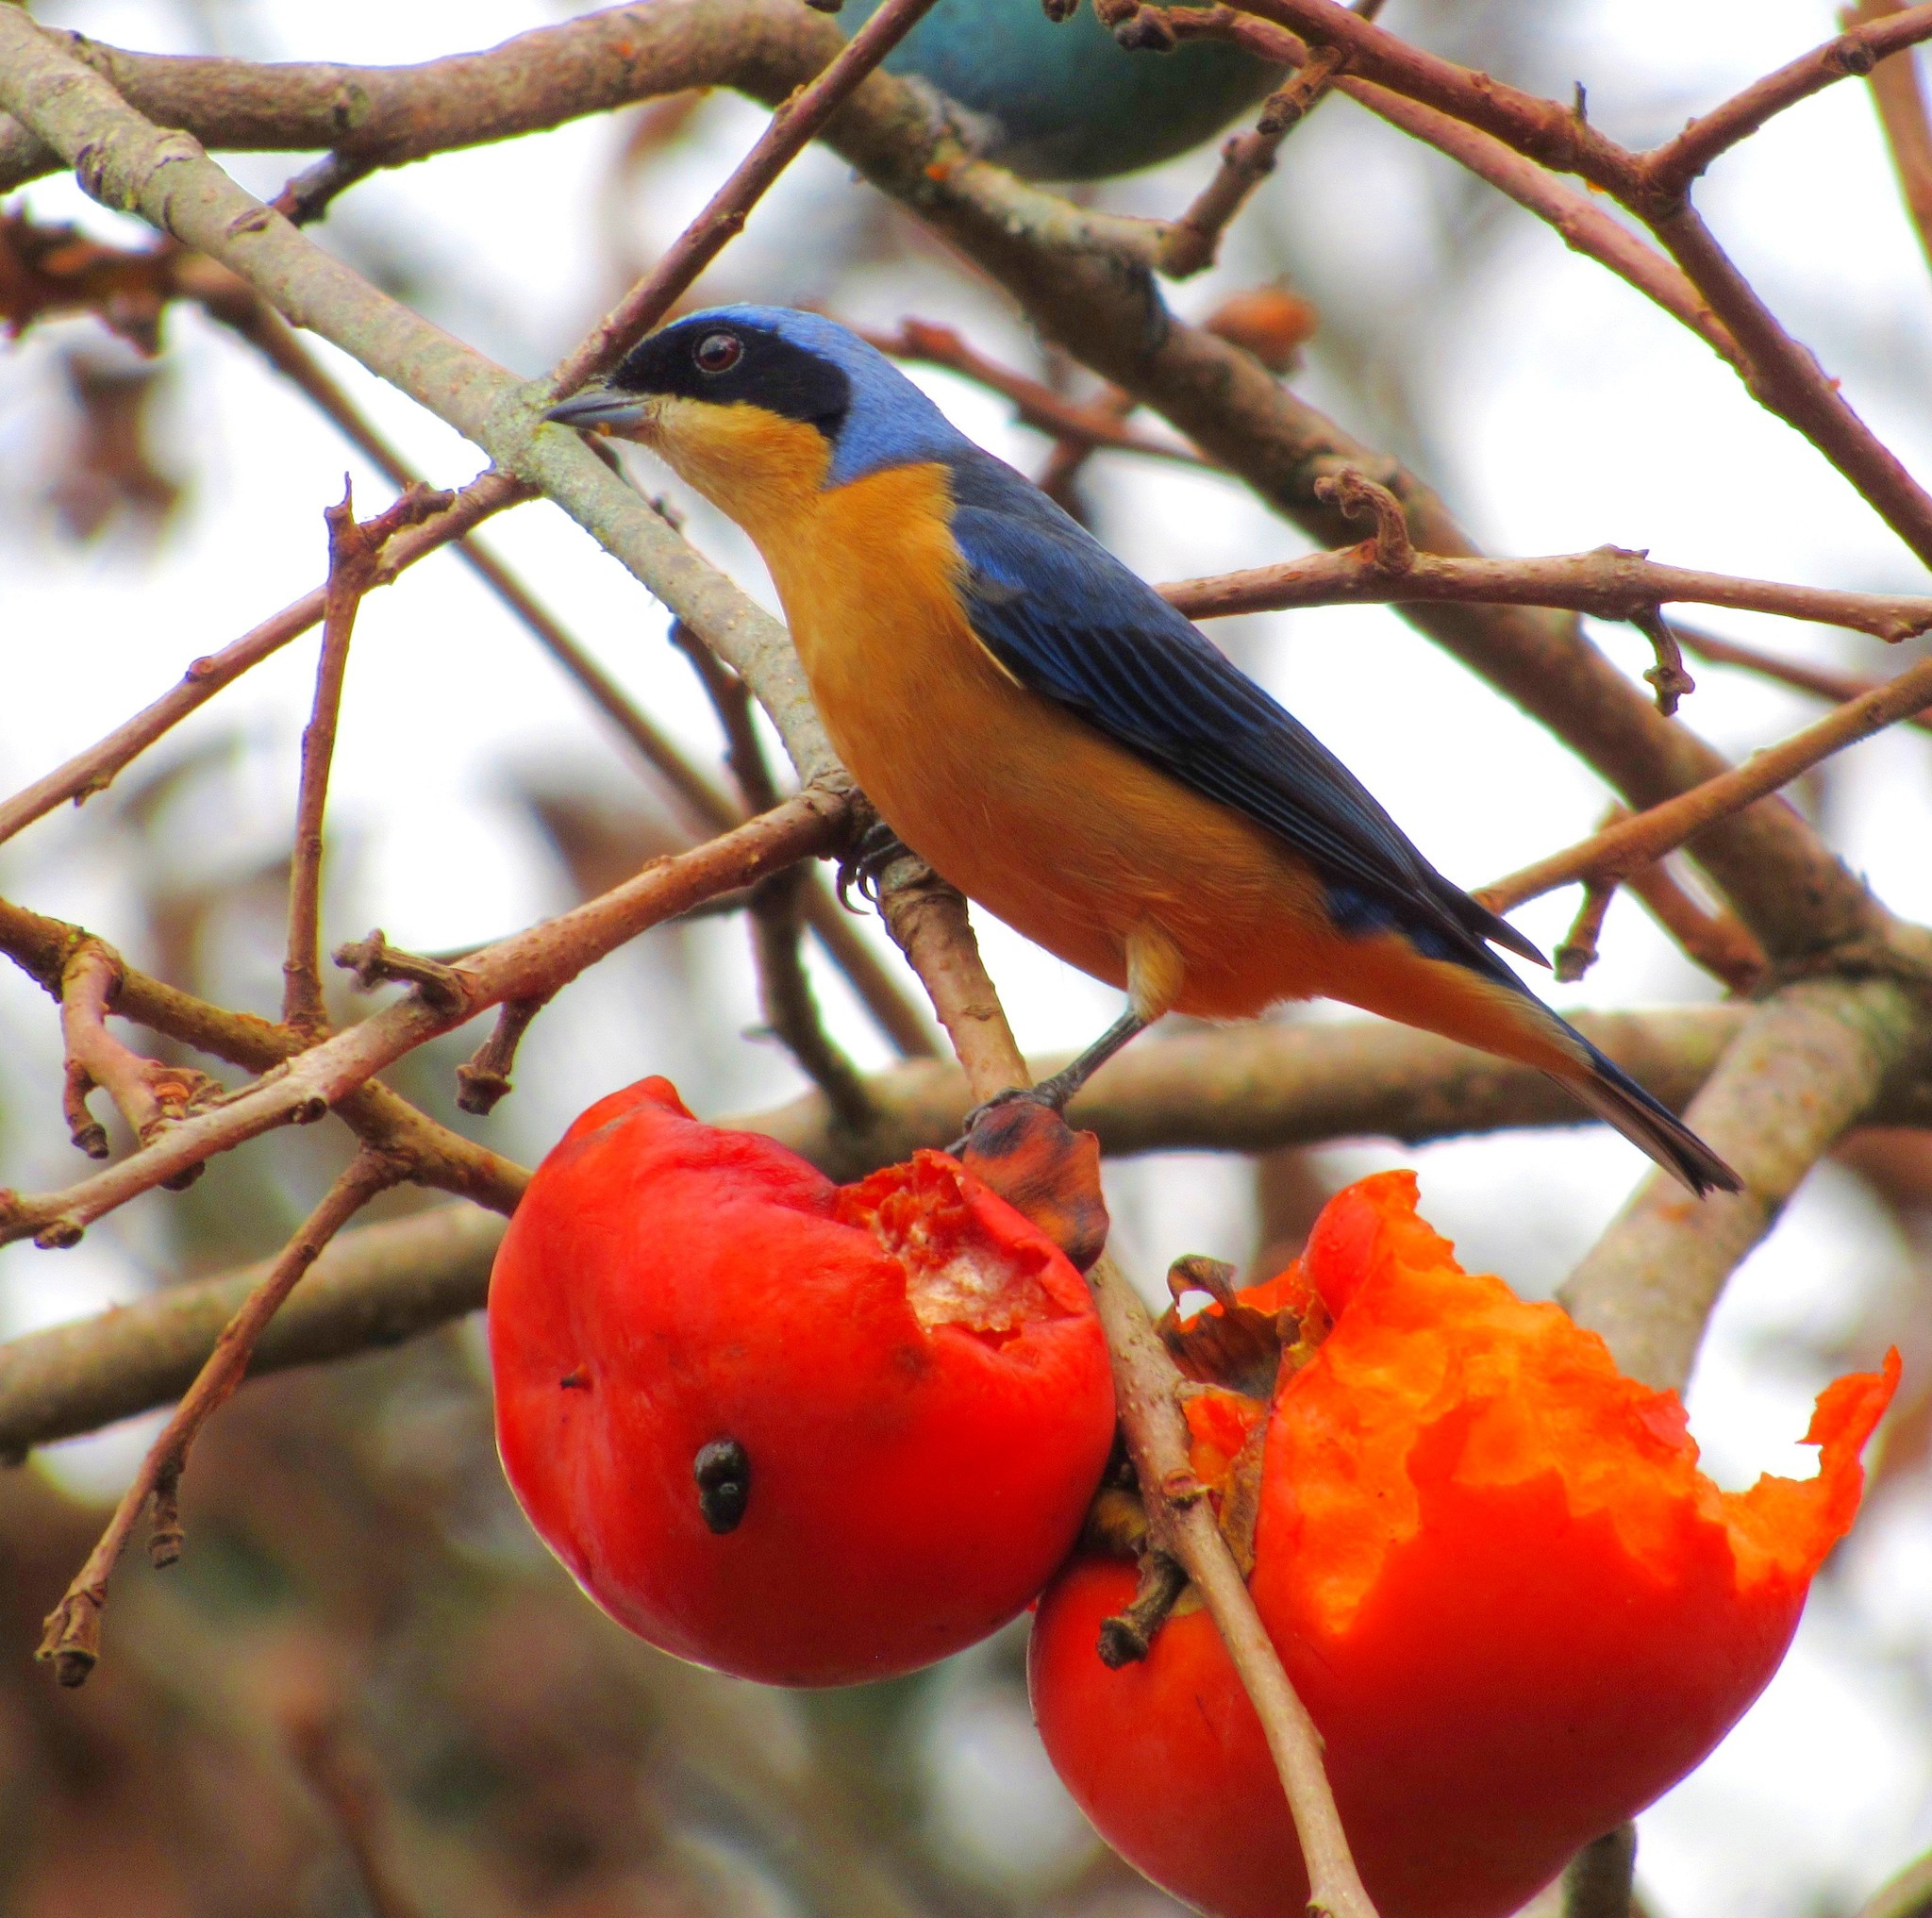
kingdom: Animalia
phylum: Chordata
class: Aves
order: Passeriformes
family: Thraupidae
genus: Pipraeidea
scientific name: Pipraeidea melanonota
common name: Fawn-breasted tanager
